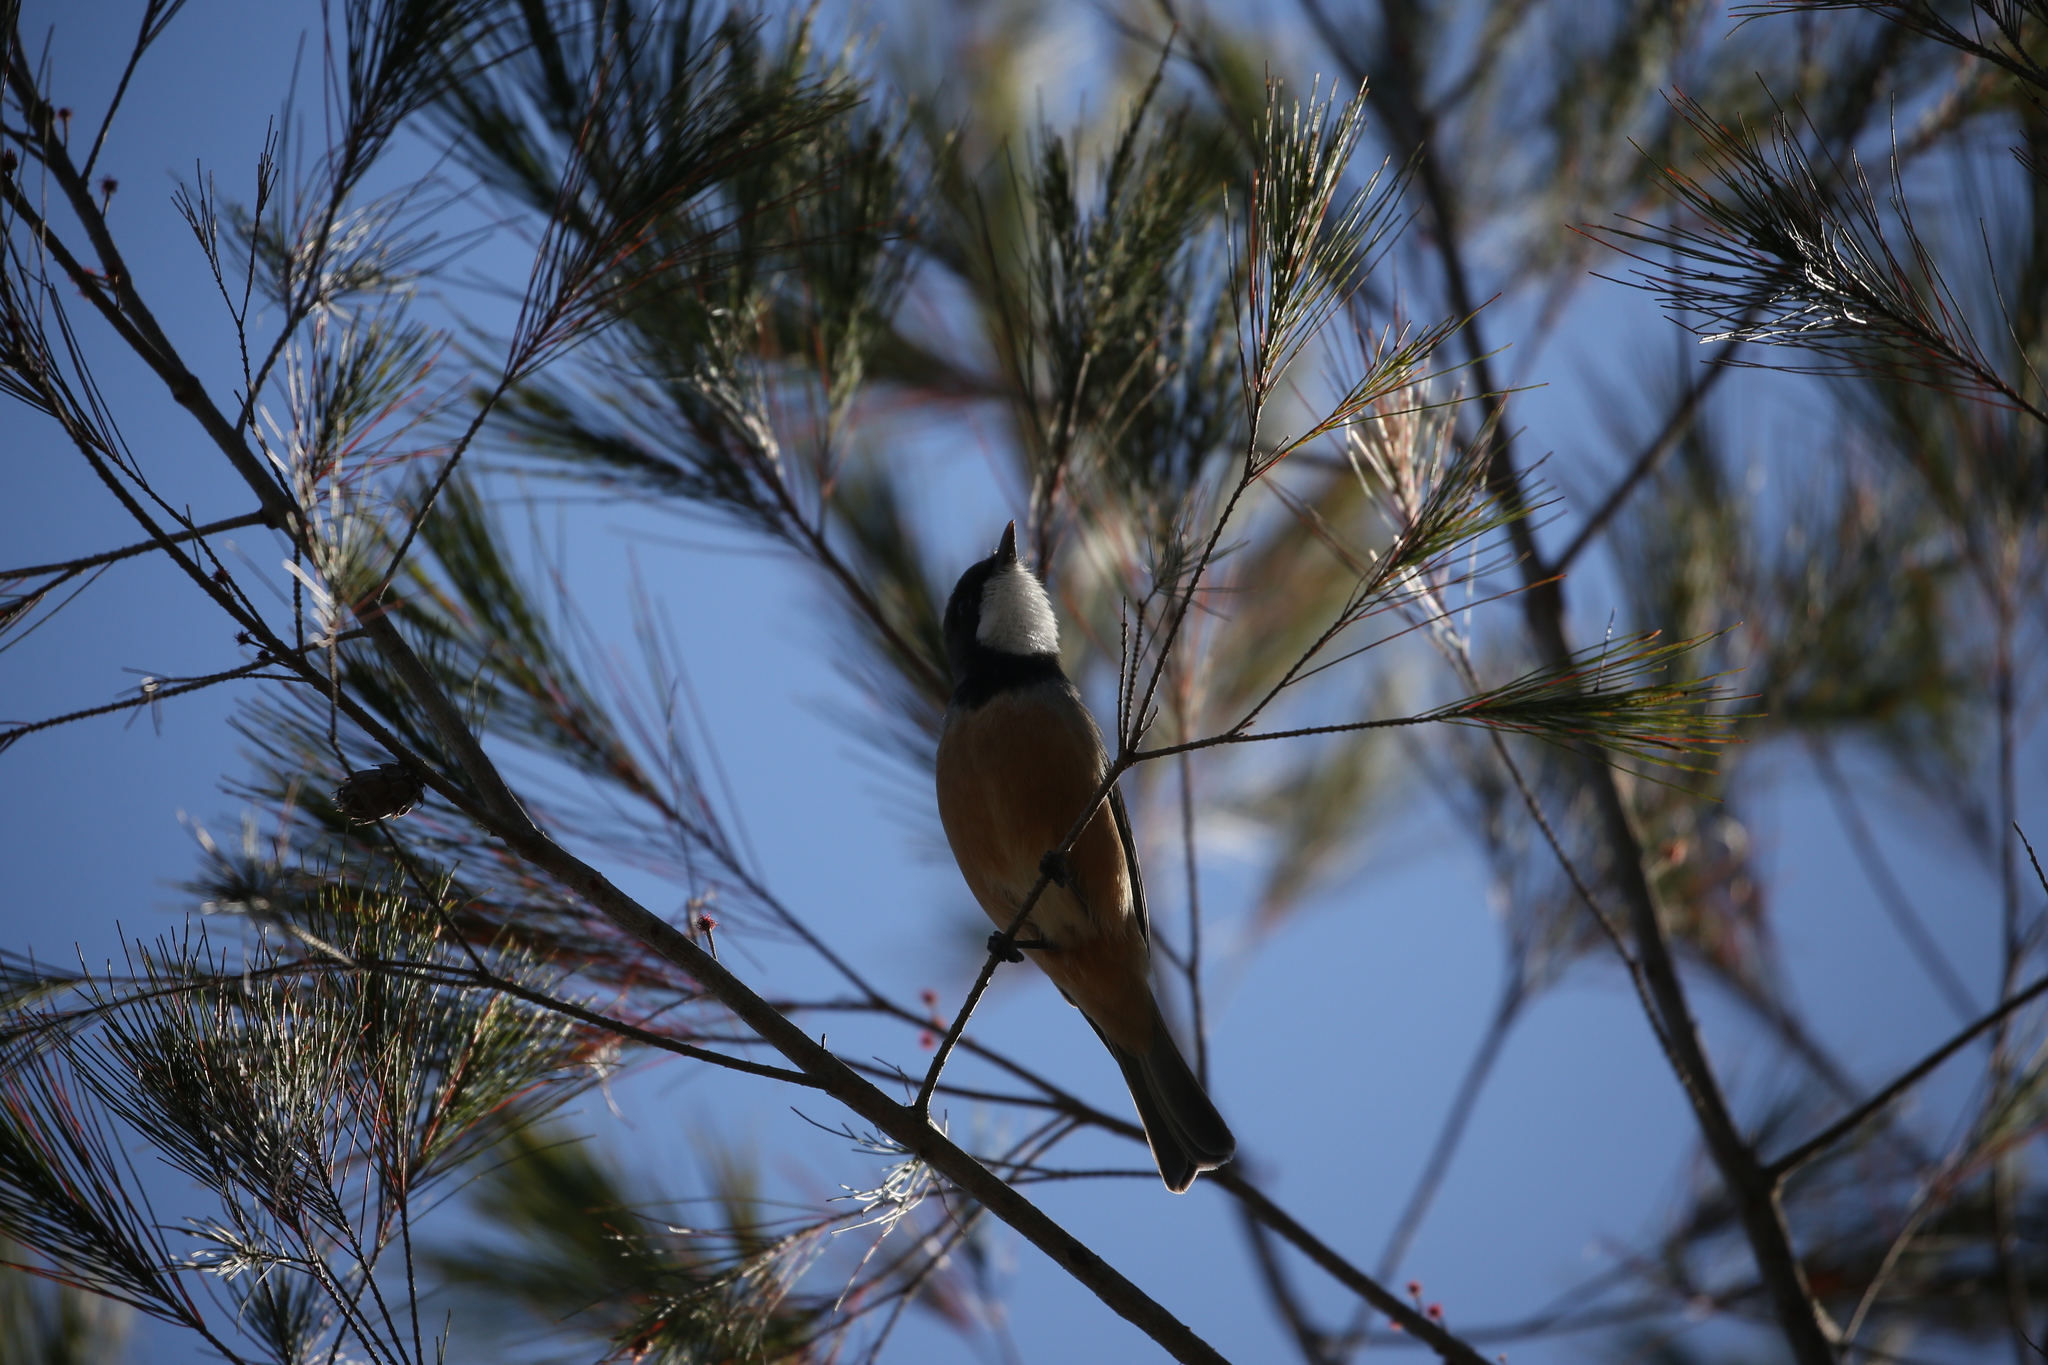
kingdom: Animalia
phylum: Chordata
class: Aves
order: Passeriformes
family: Pachycephalidae
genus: Pachycephala
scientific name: Pachycephala rufiventris
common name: Rufous whistler
